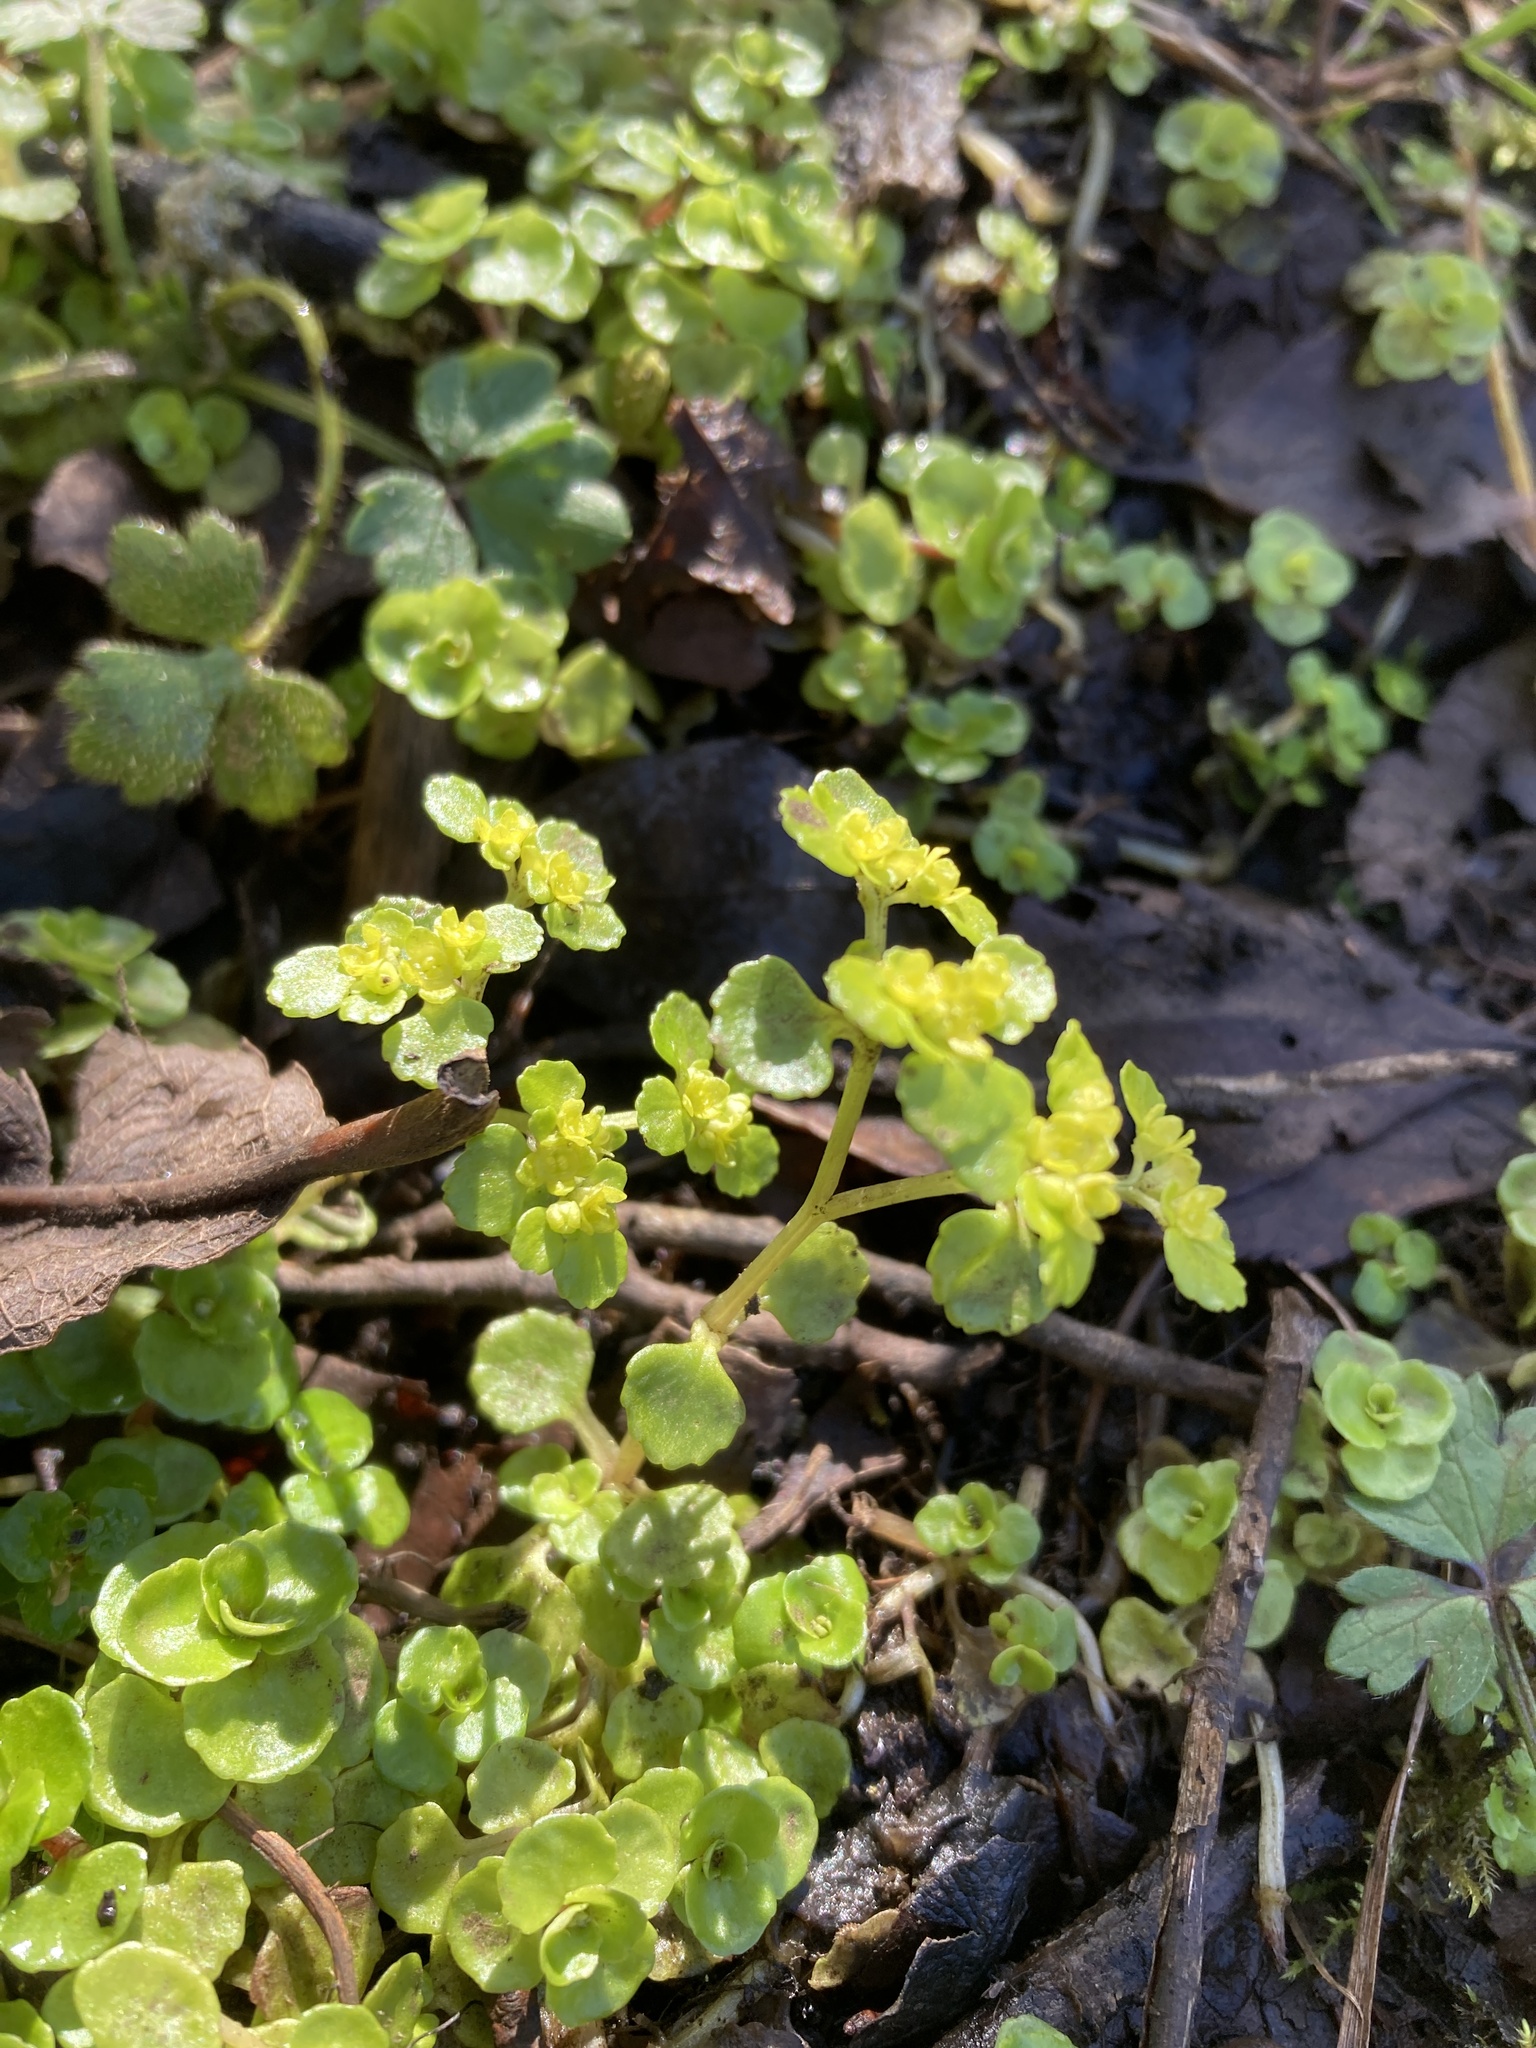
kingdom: Plantae
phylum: Tracheophyta
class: Magnoliopsida
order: Saxifragales
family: Saxifragaceae
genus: Chrysosplenium
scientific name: Chrysosplenium oppositifolium
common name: Opposite-leaved golden-saxifrage
